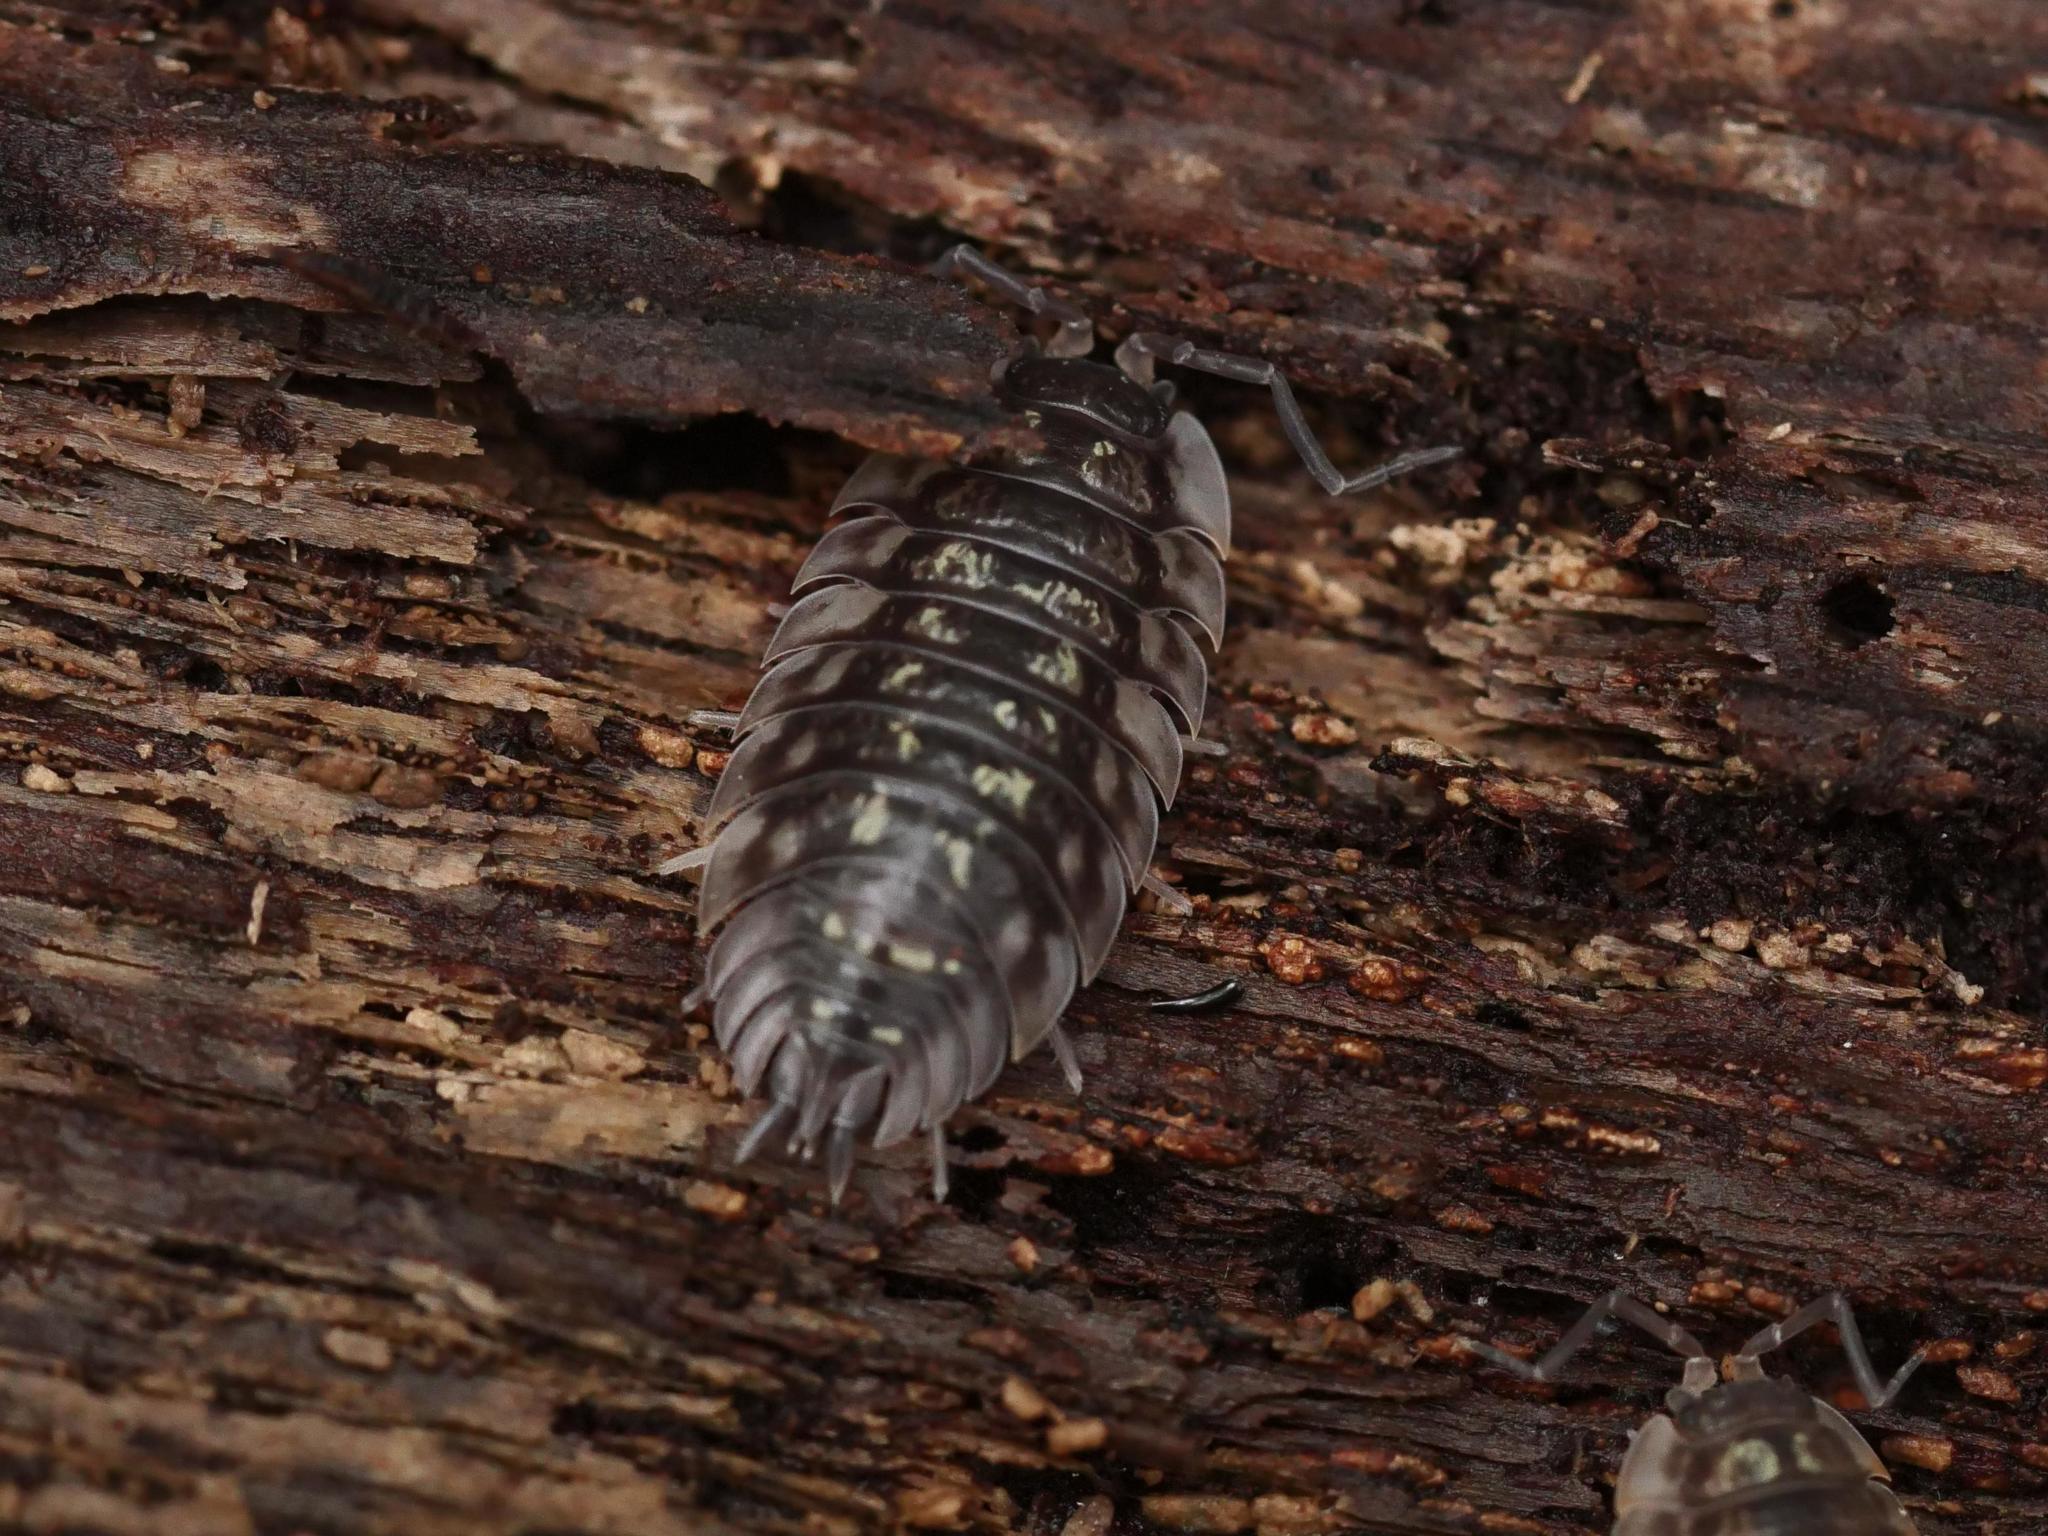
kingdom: Animalia
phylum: Arthropoda
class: Malacostraca
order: Isopoda
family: Oniscidae
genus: Oniscus
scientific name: Oniscus asellus
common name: Common shiny woodlouse
